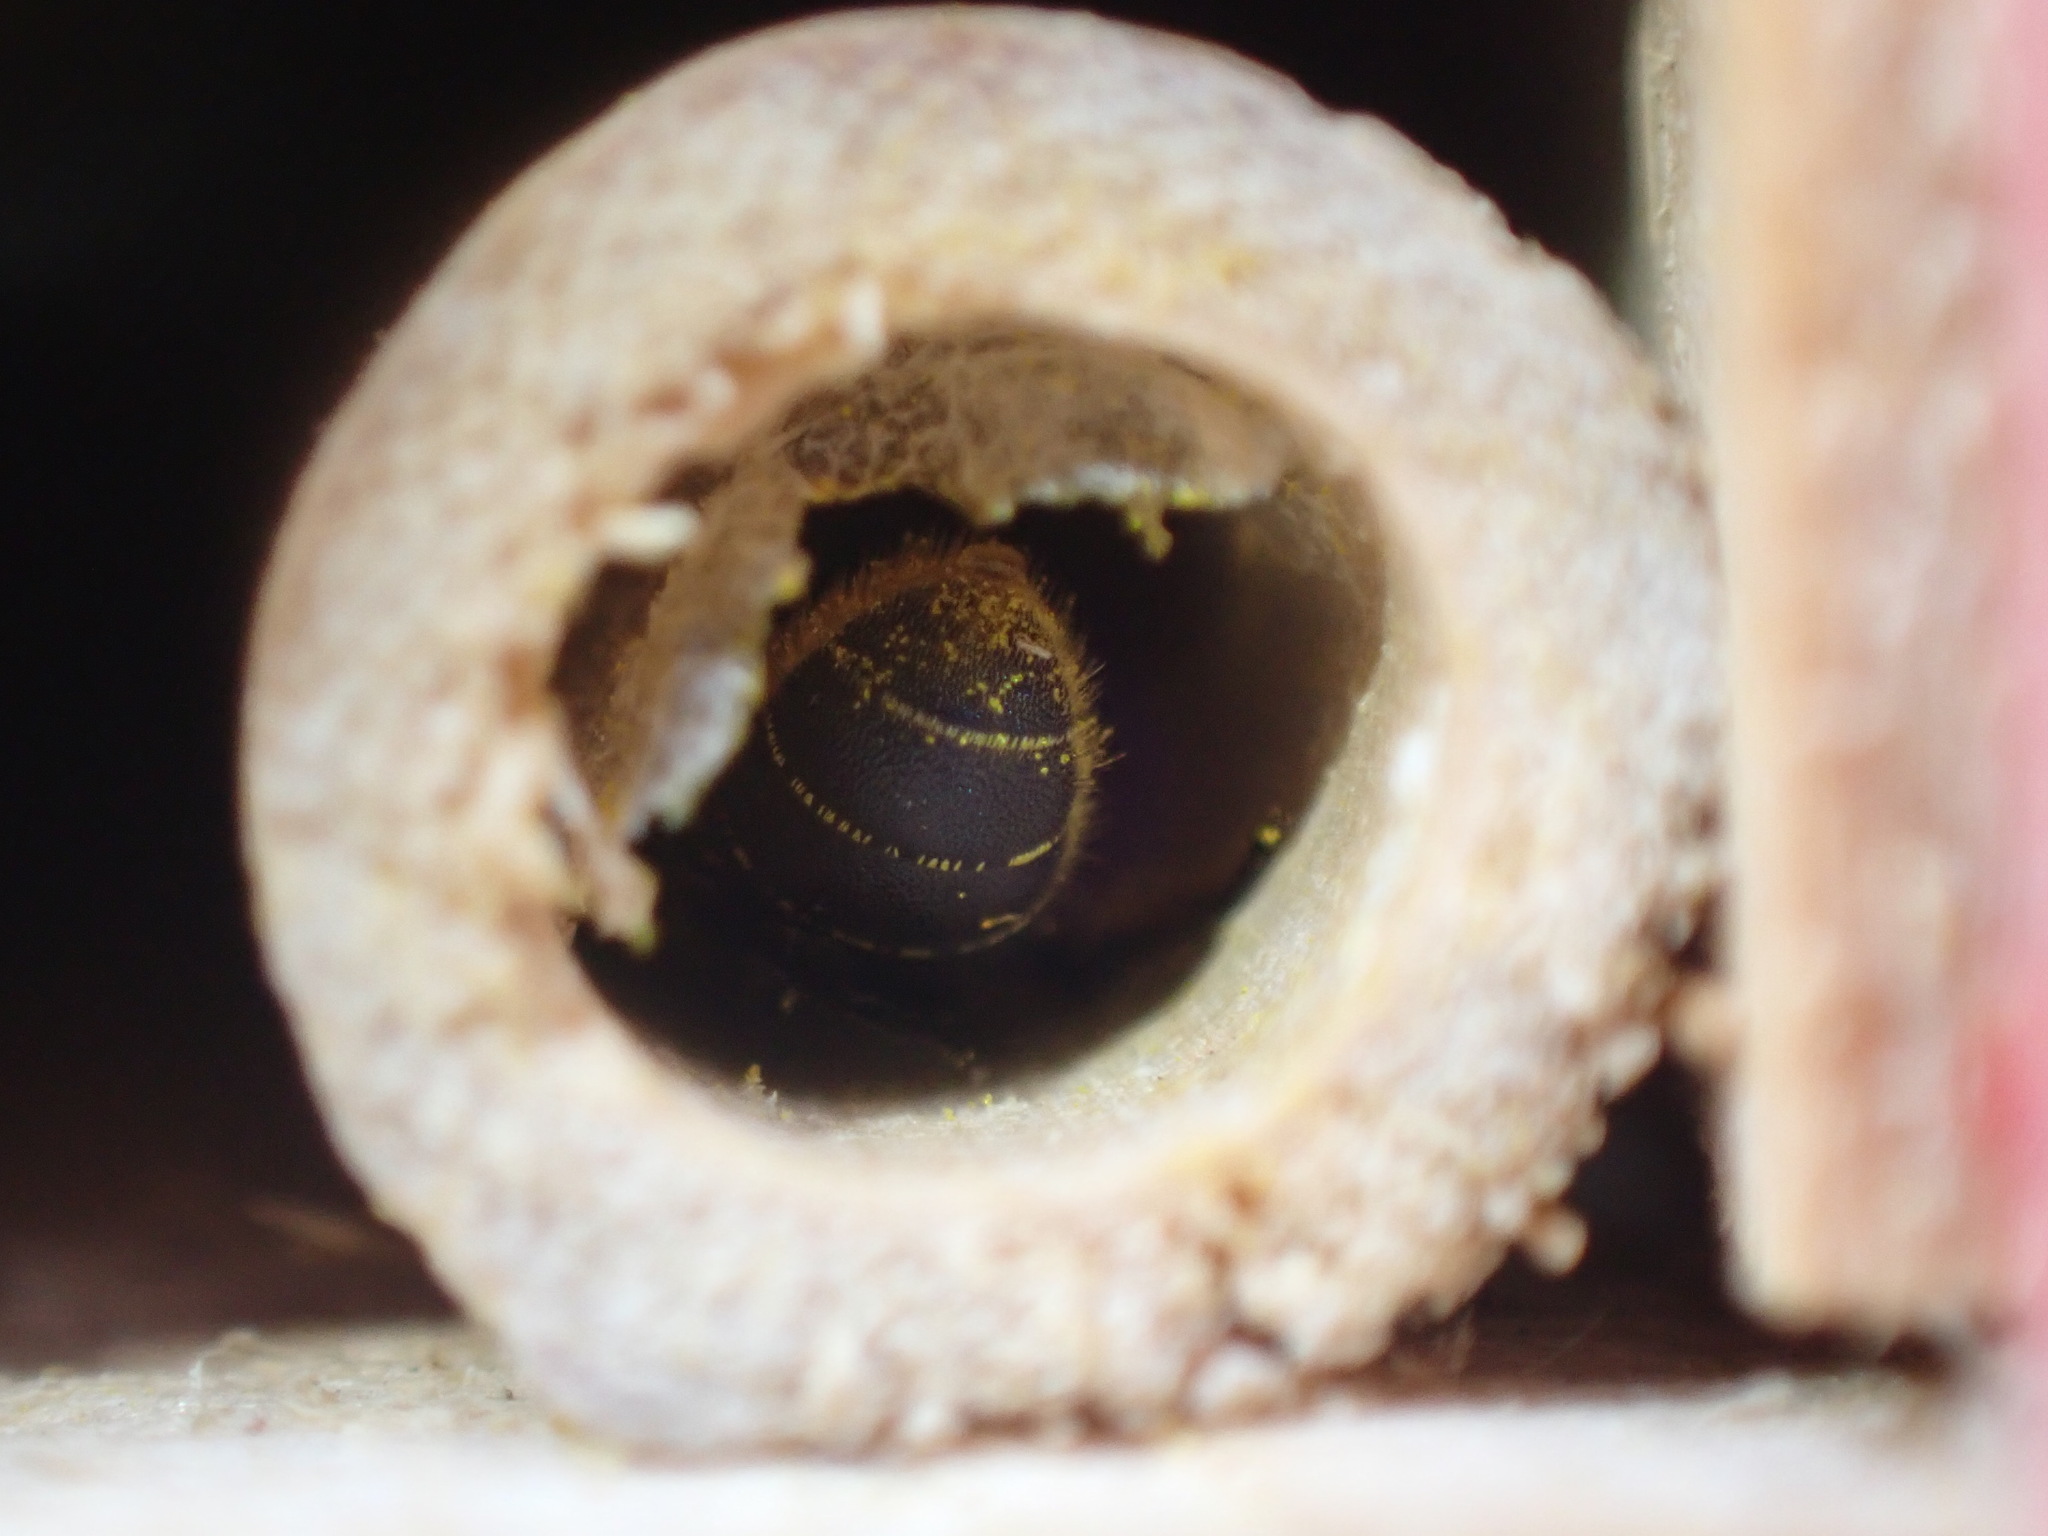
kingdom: Animalia
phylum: Arthropoda
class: Insecta
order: Hymenoptera
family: Megachilidae
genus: Heriades
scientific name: Heriades truncorum
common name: Ridge-saddled carpenter bee
